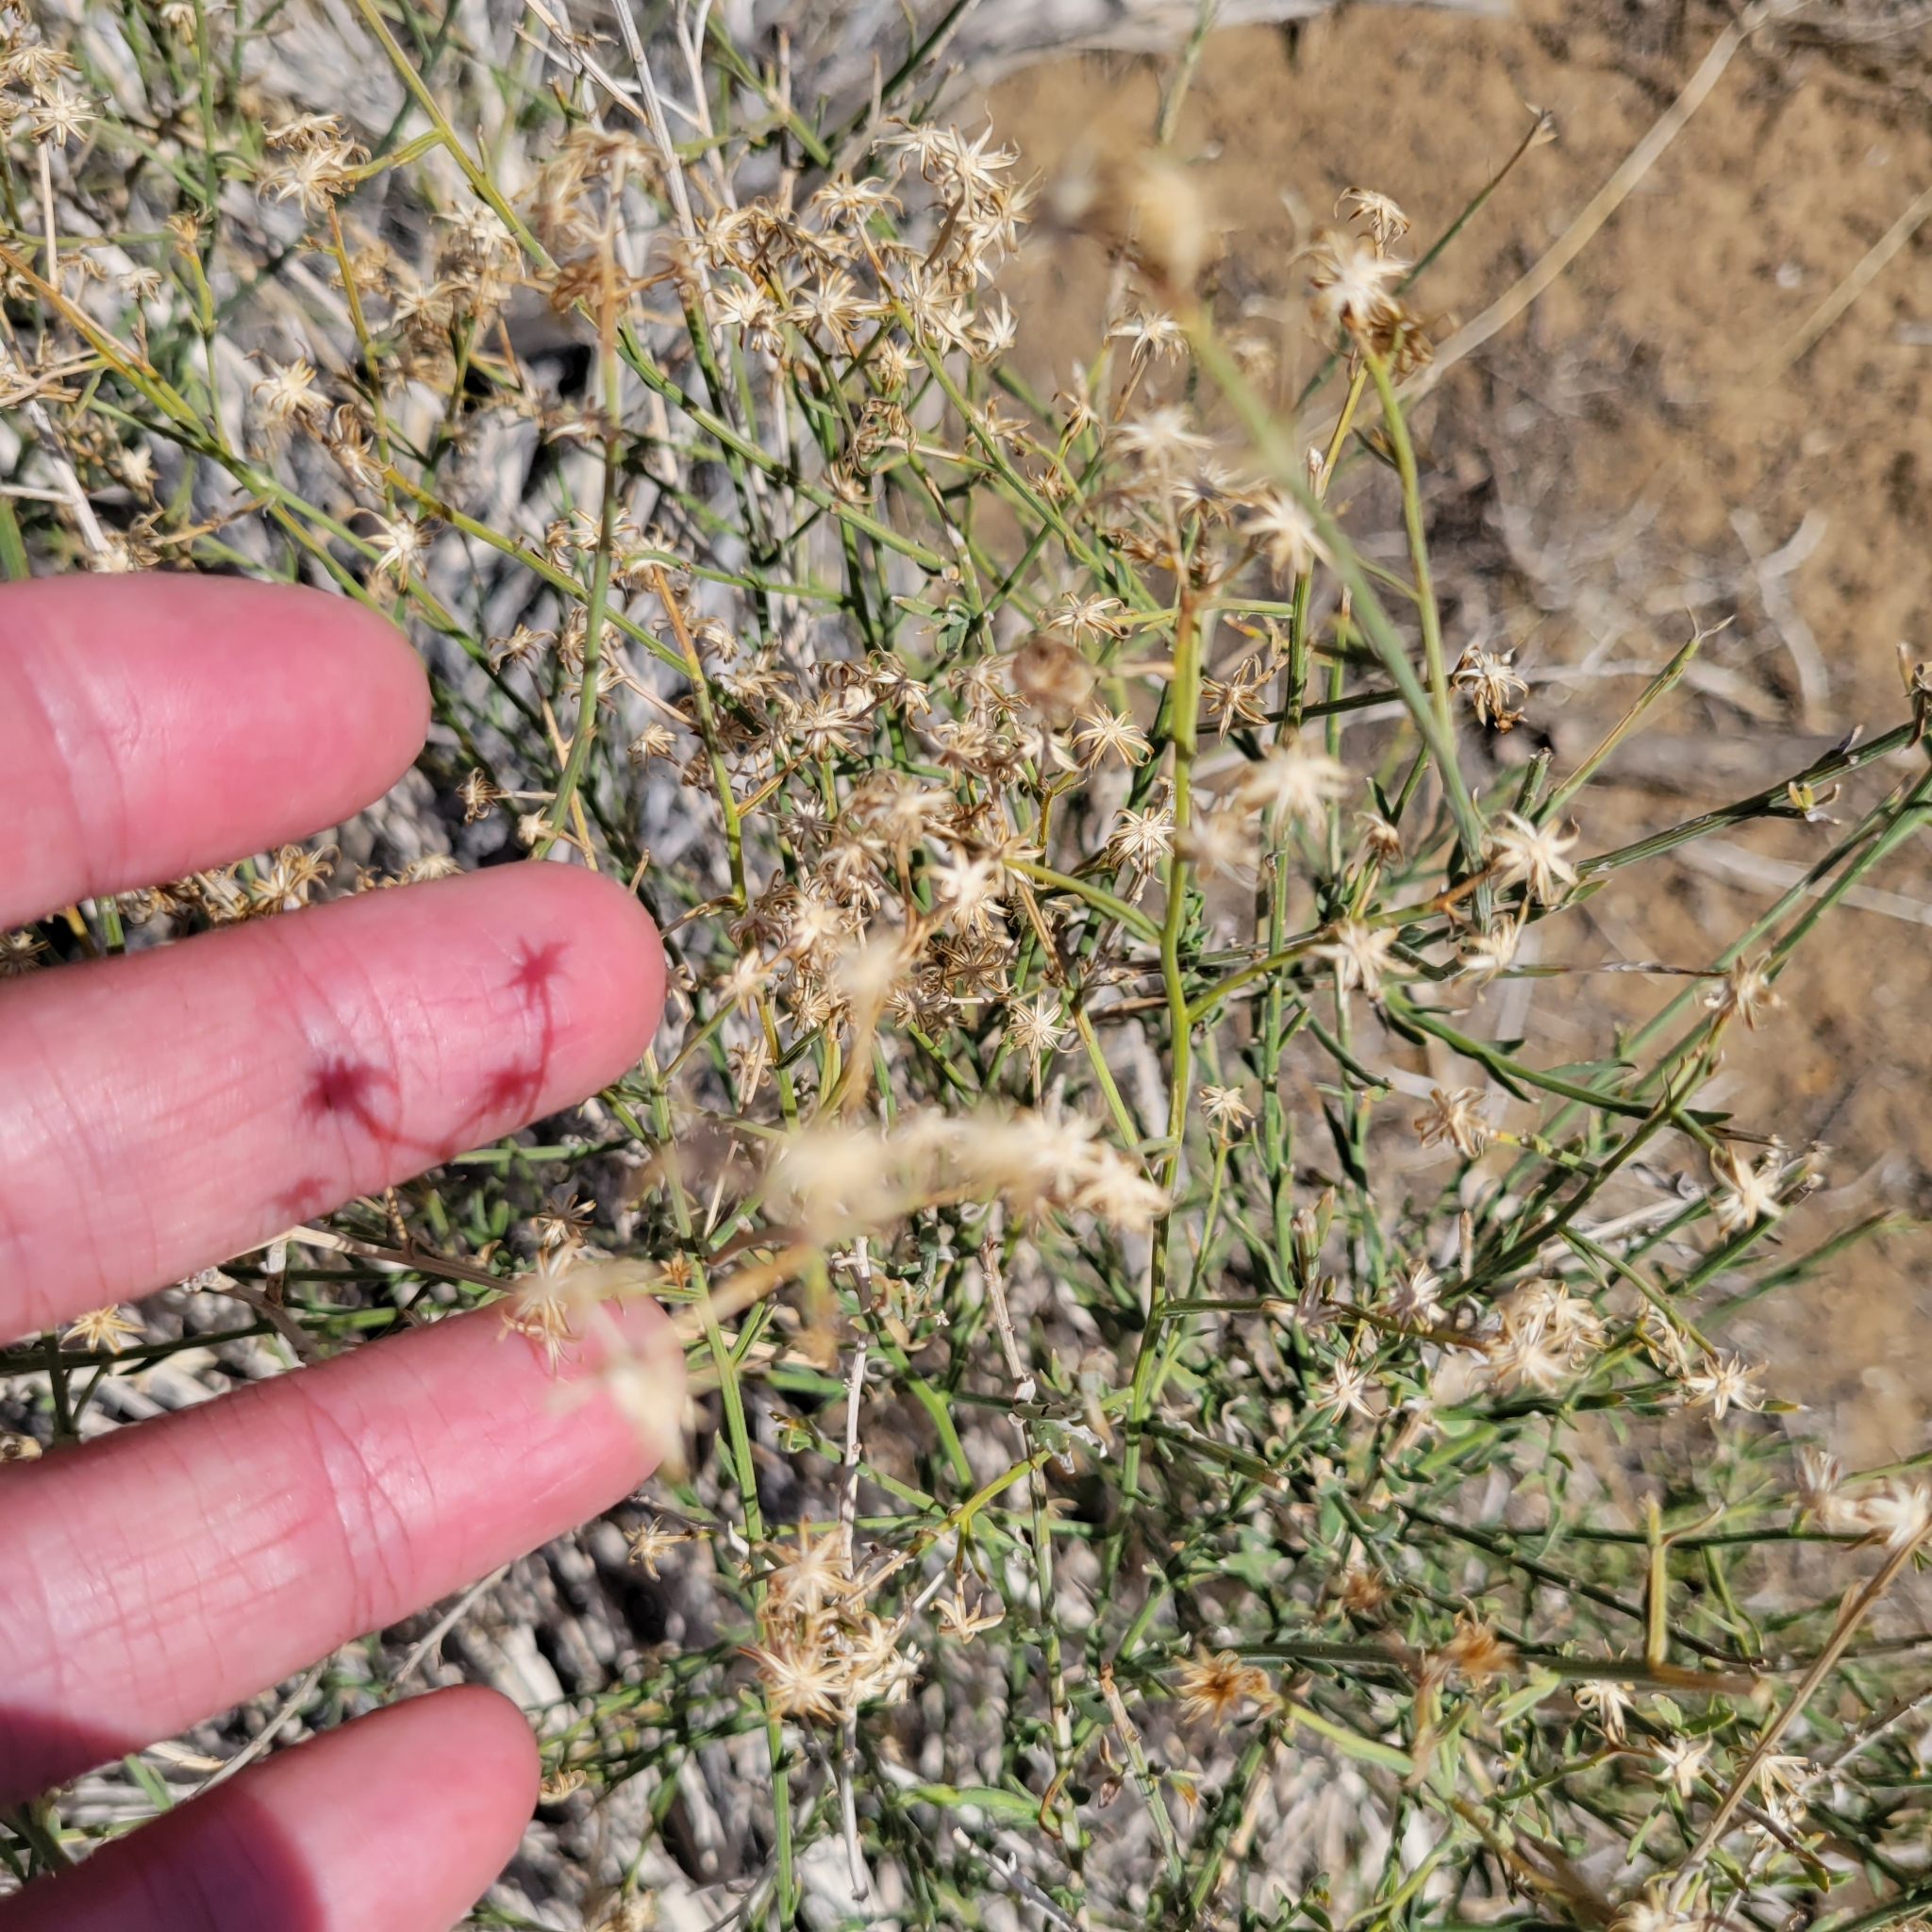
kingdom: Plantae
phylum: Tracheophyta
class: Magnoliopsida
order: Asterales
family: Asteraceae
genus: Baccharis
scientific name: Baccharis brachyphylla
